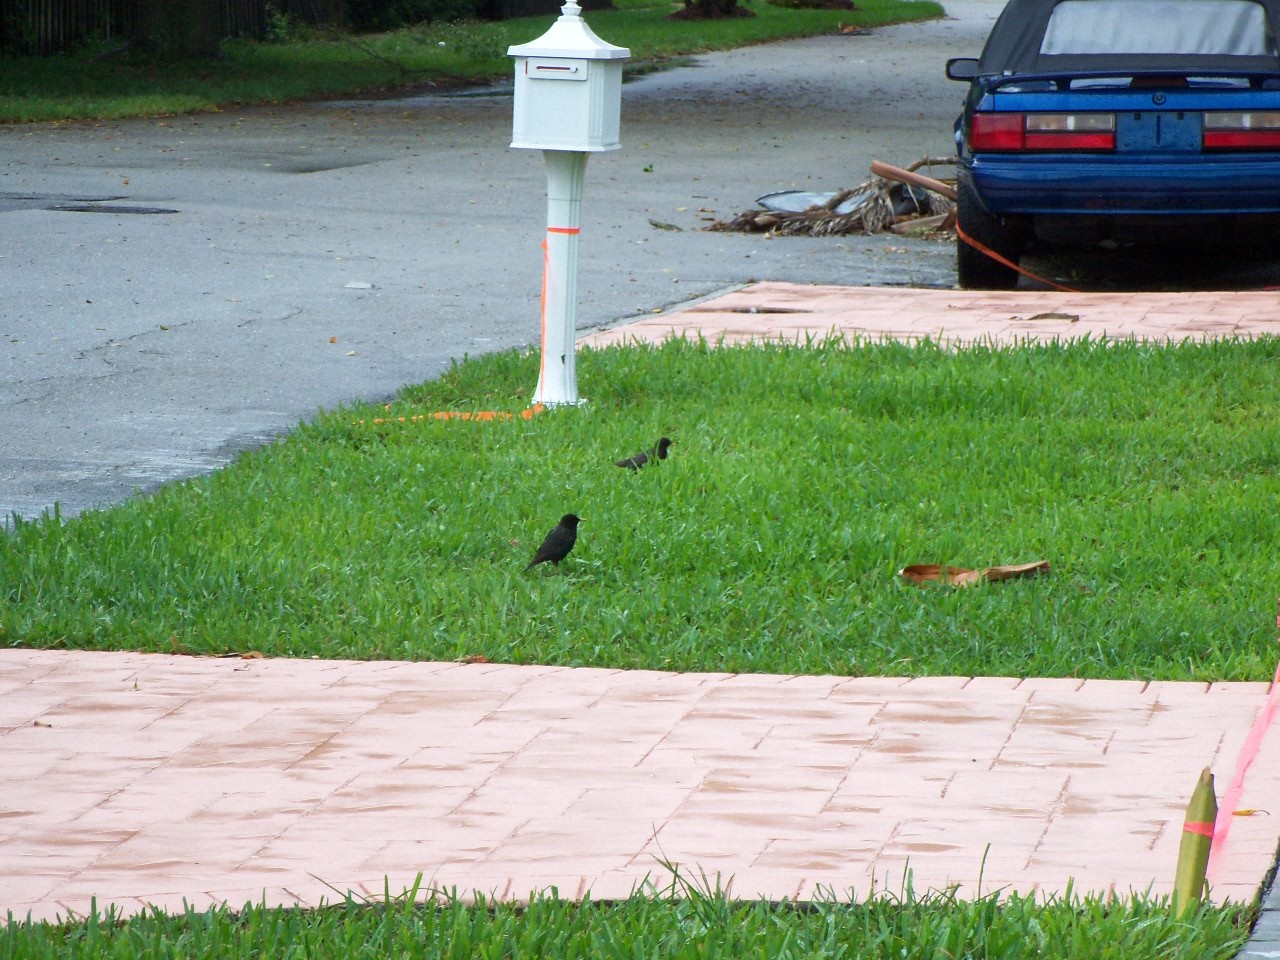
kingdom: Animalia
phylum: Chordata
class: Aves
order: Passeriformes
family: Sturnidae
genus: Sturnus
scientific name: Sturnus vulgaris
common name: Common starling
